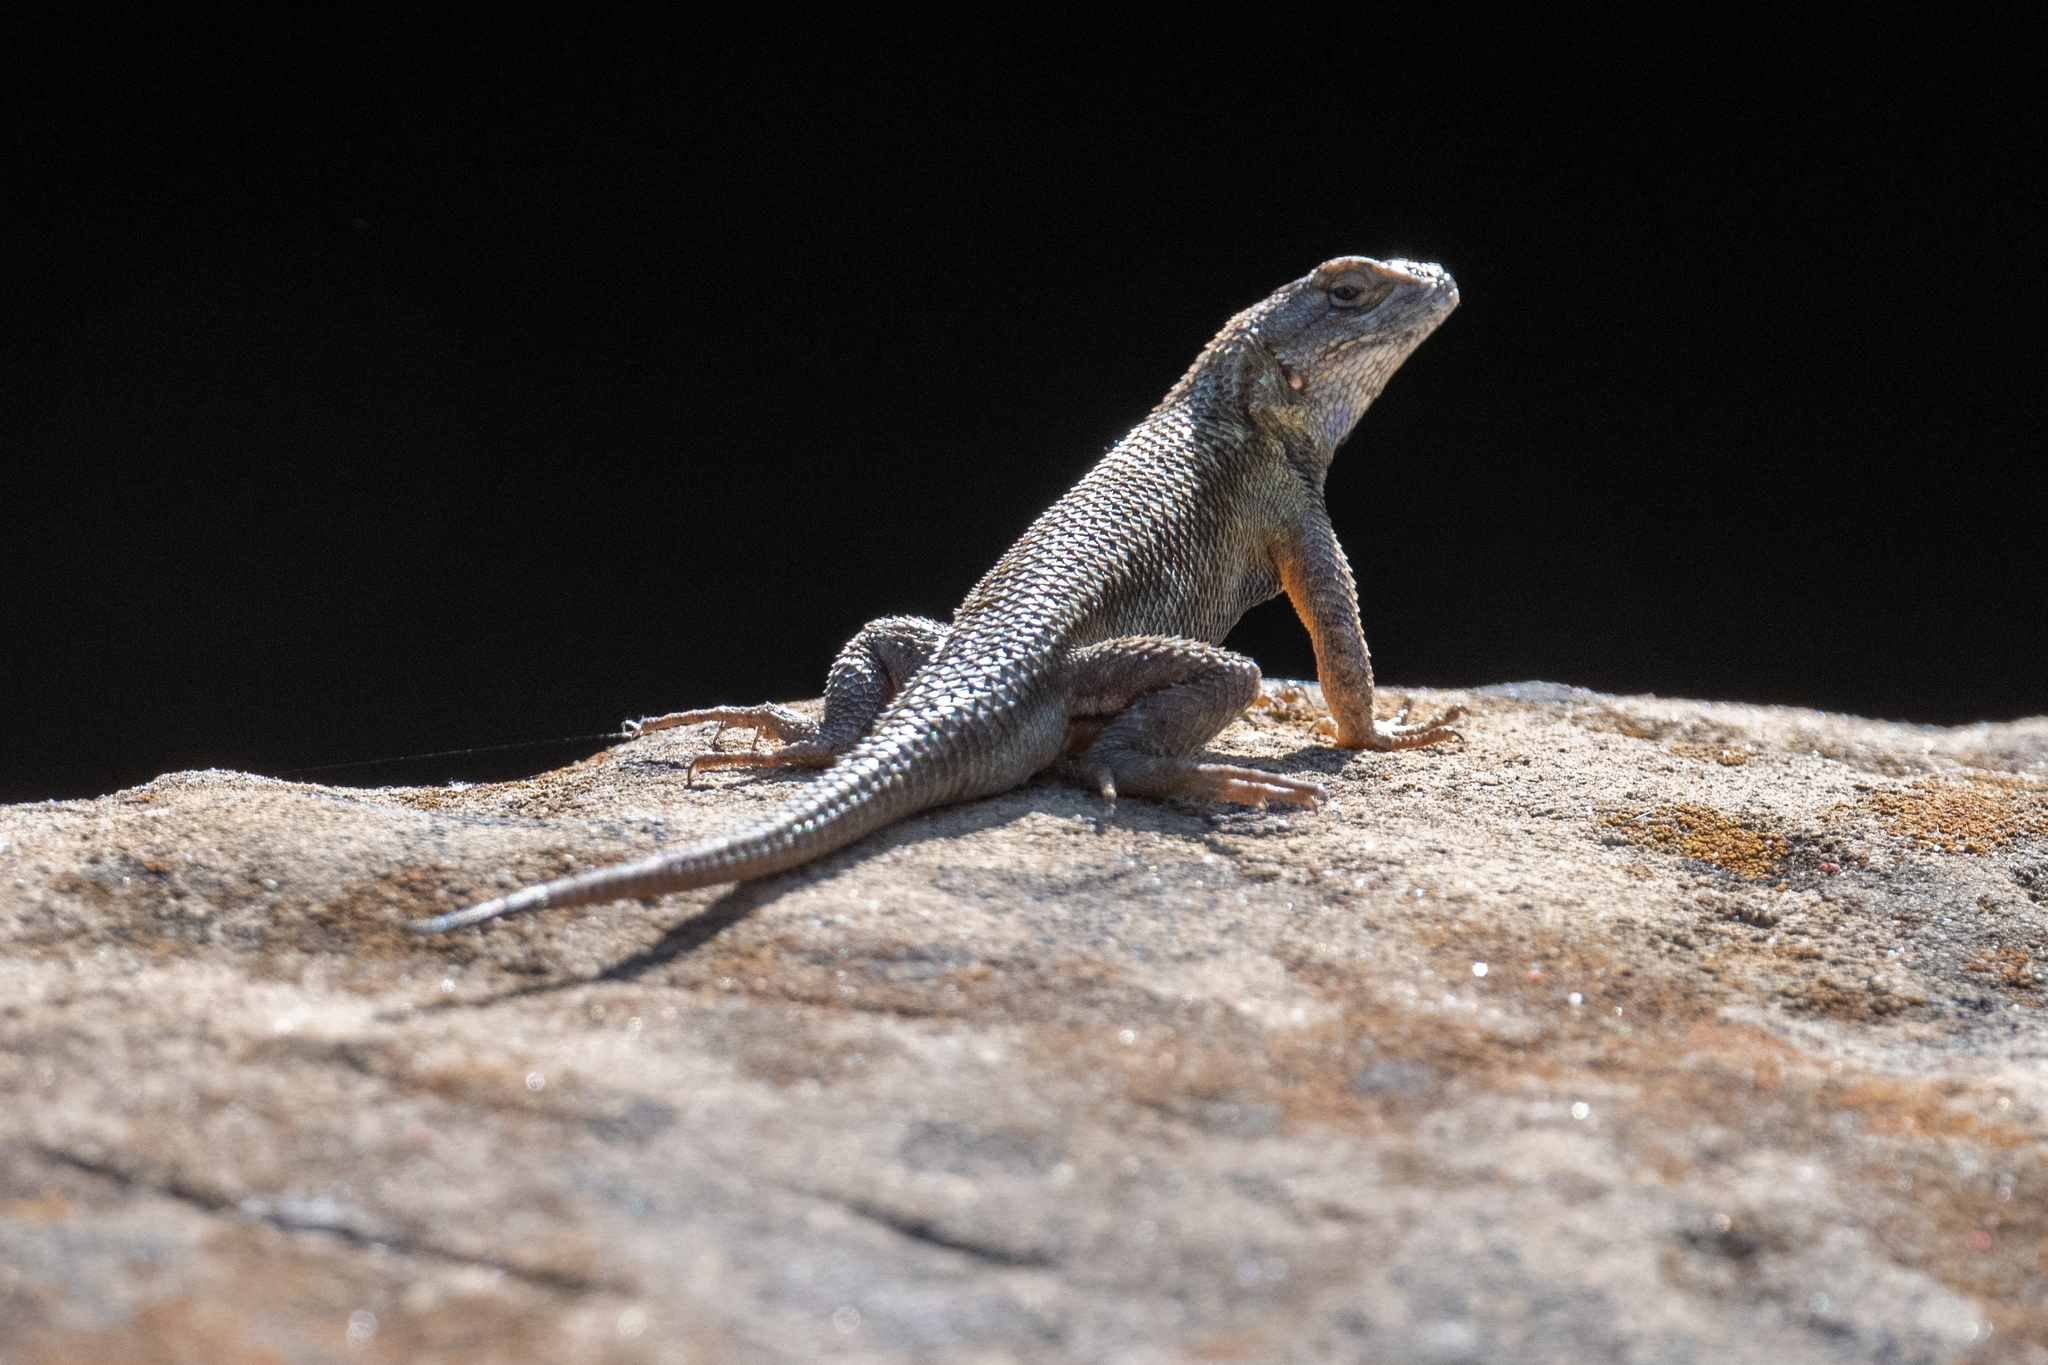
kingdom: Animalia
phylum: Chordata
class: Squamata
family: Phrynosomatidae
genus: Sceloporus
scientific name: Sceloporus occidentalis
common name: Western fence lizard
